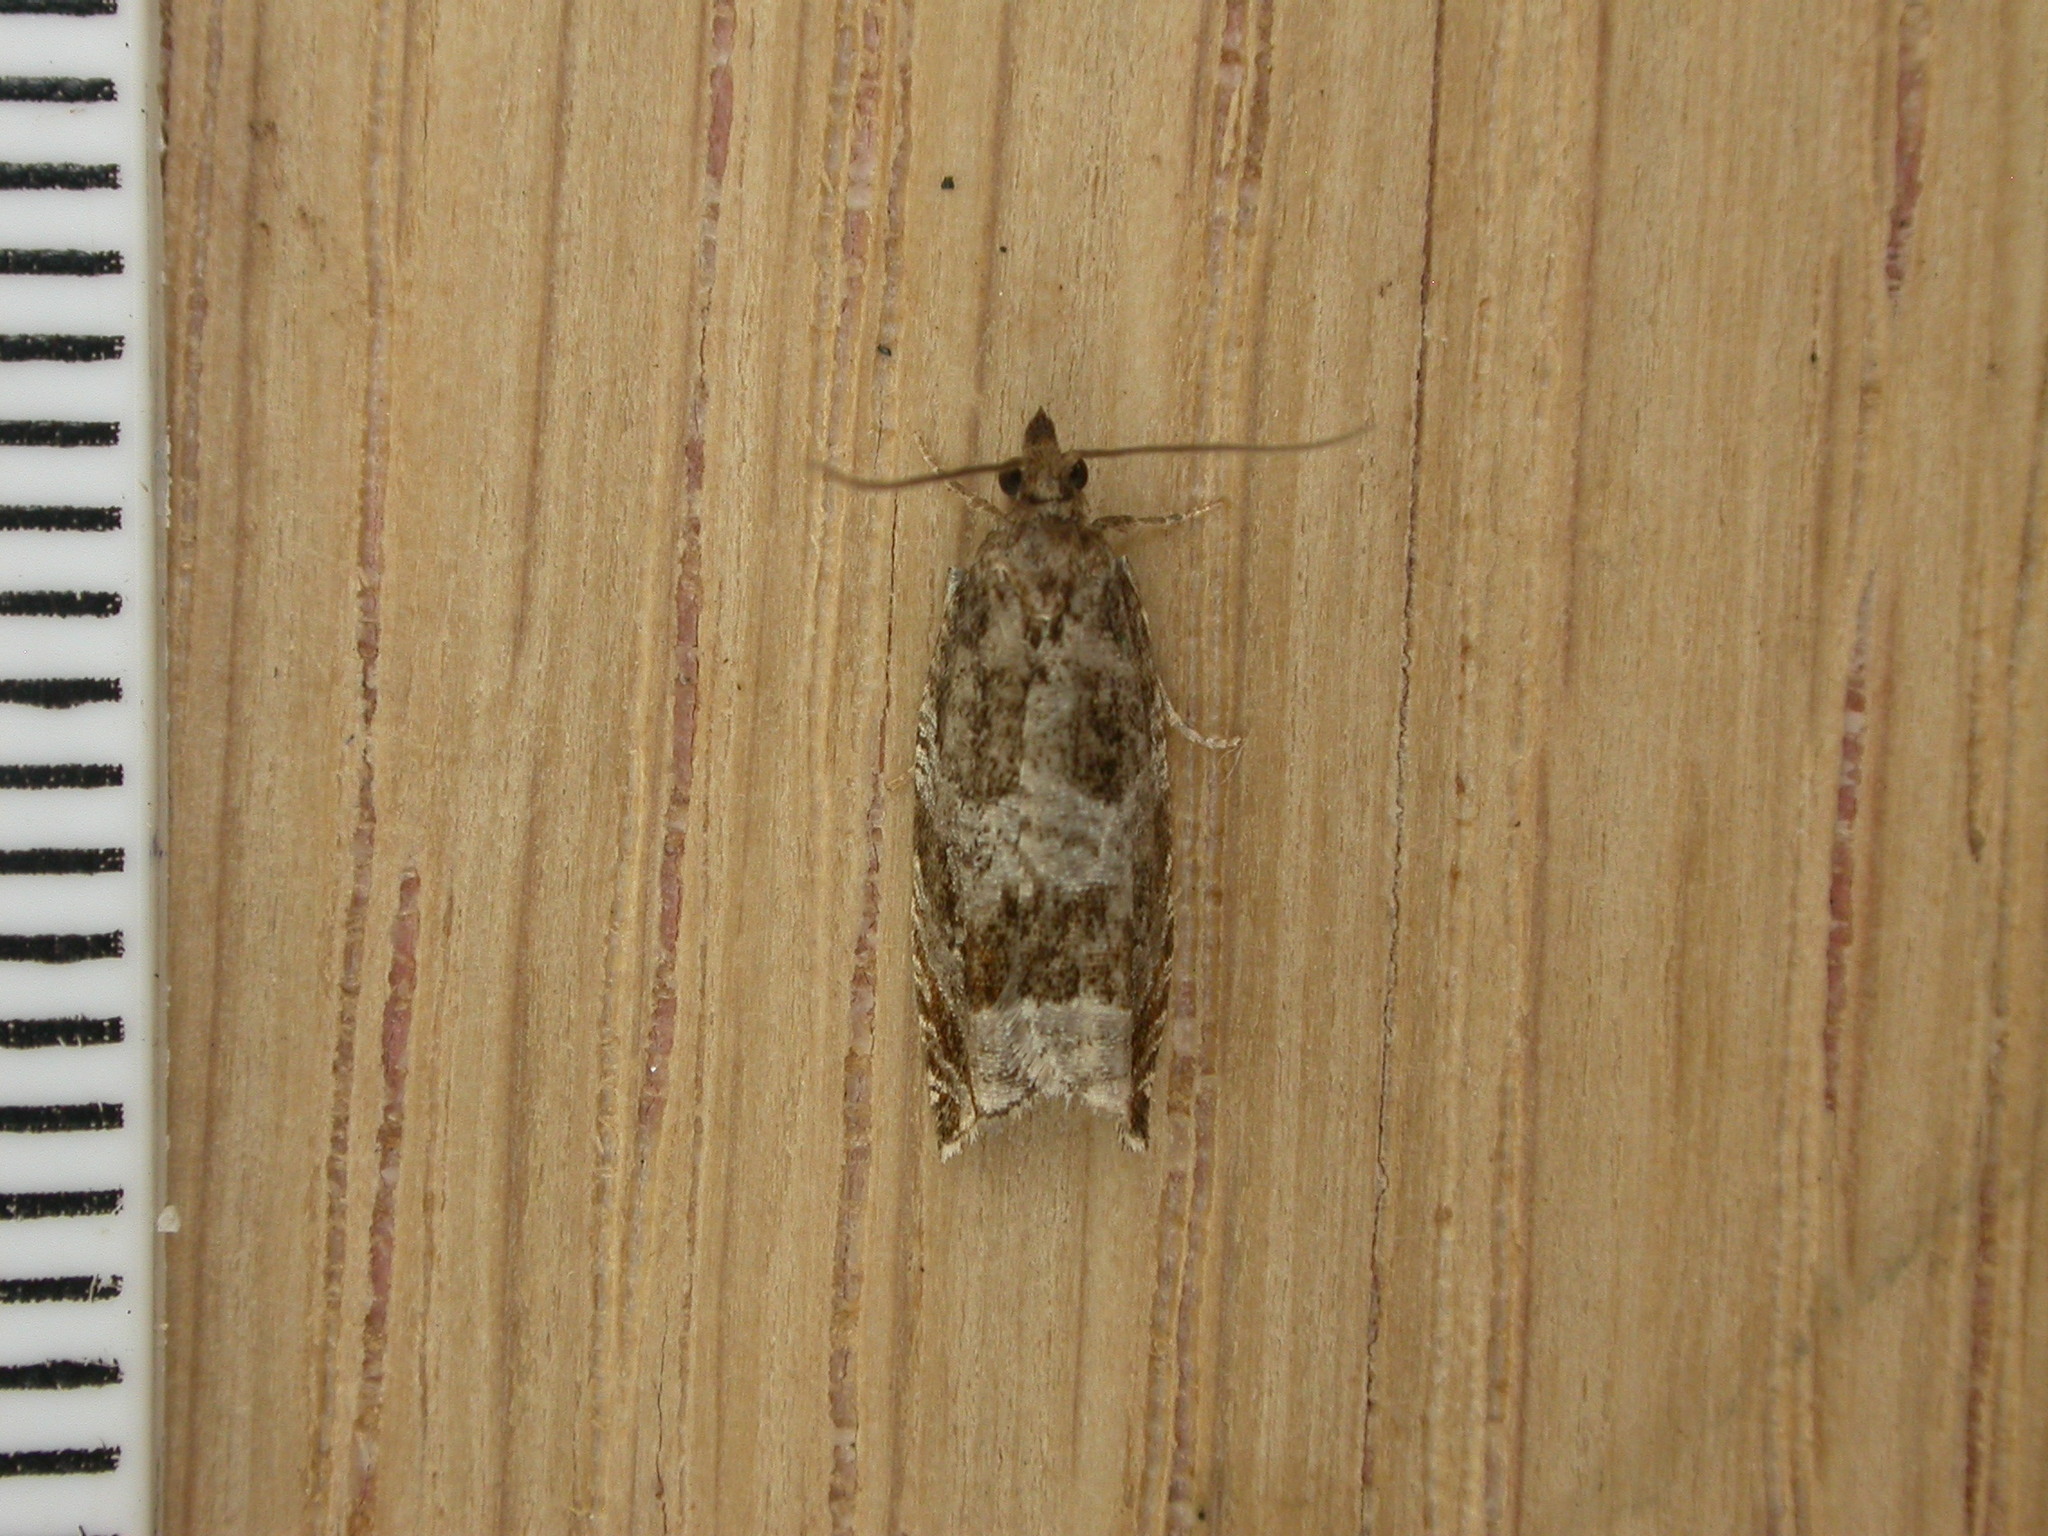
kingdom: Animalia
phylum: Arthropoda
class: Insecta
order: Lepidoptera
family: Tortricidae
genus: Ancylis
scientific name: Ancylis achatana
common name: Triangle-marked roller
